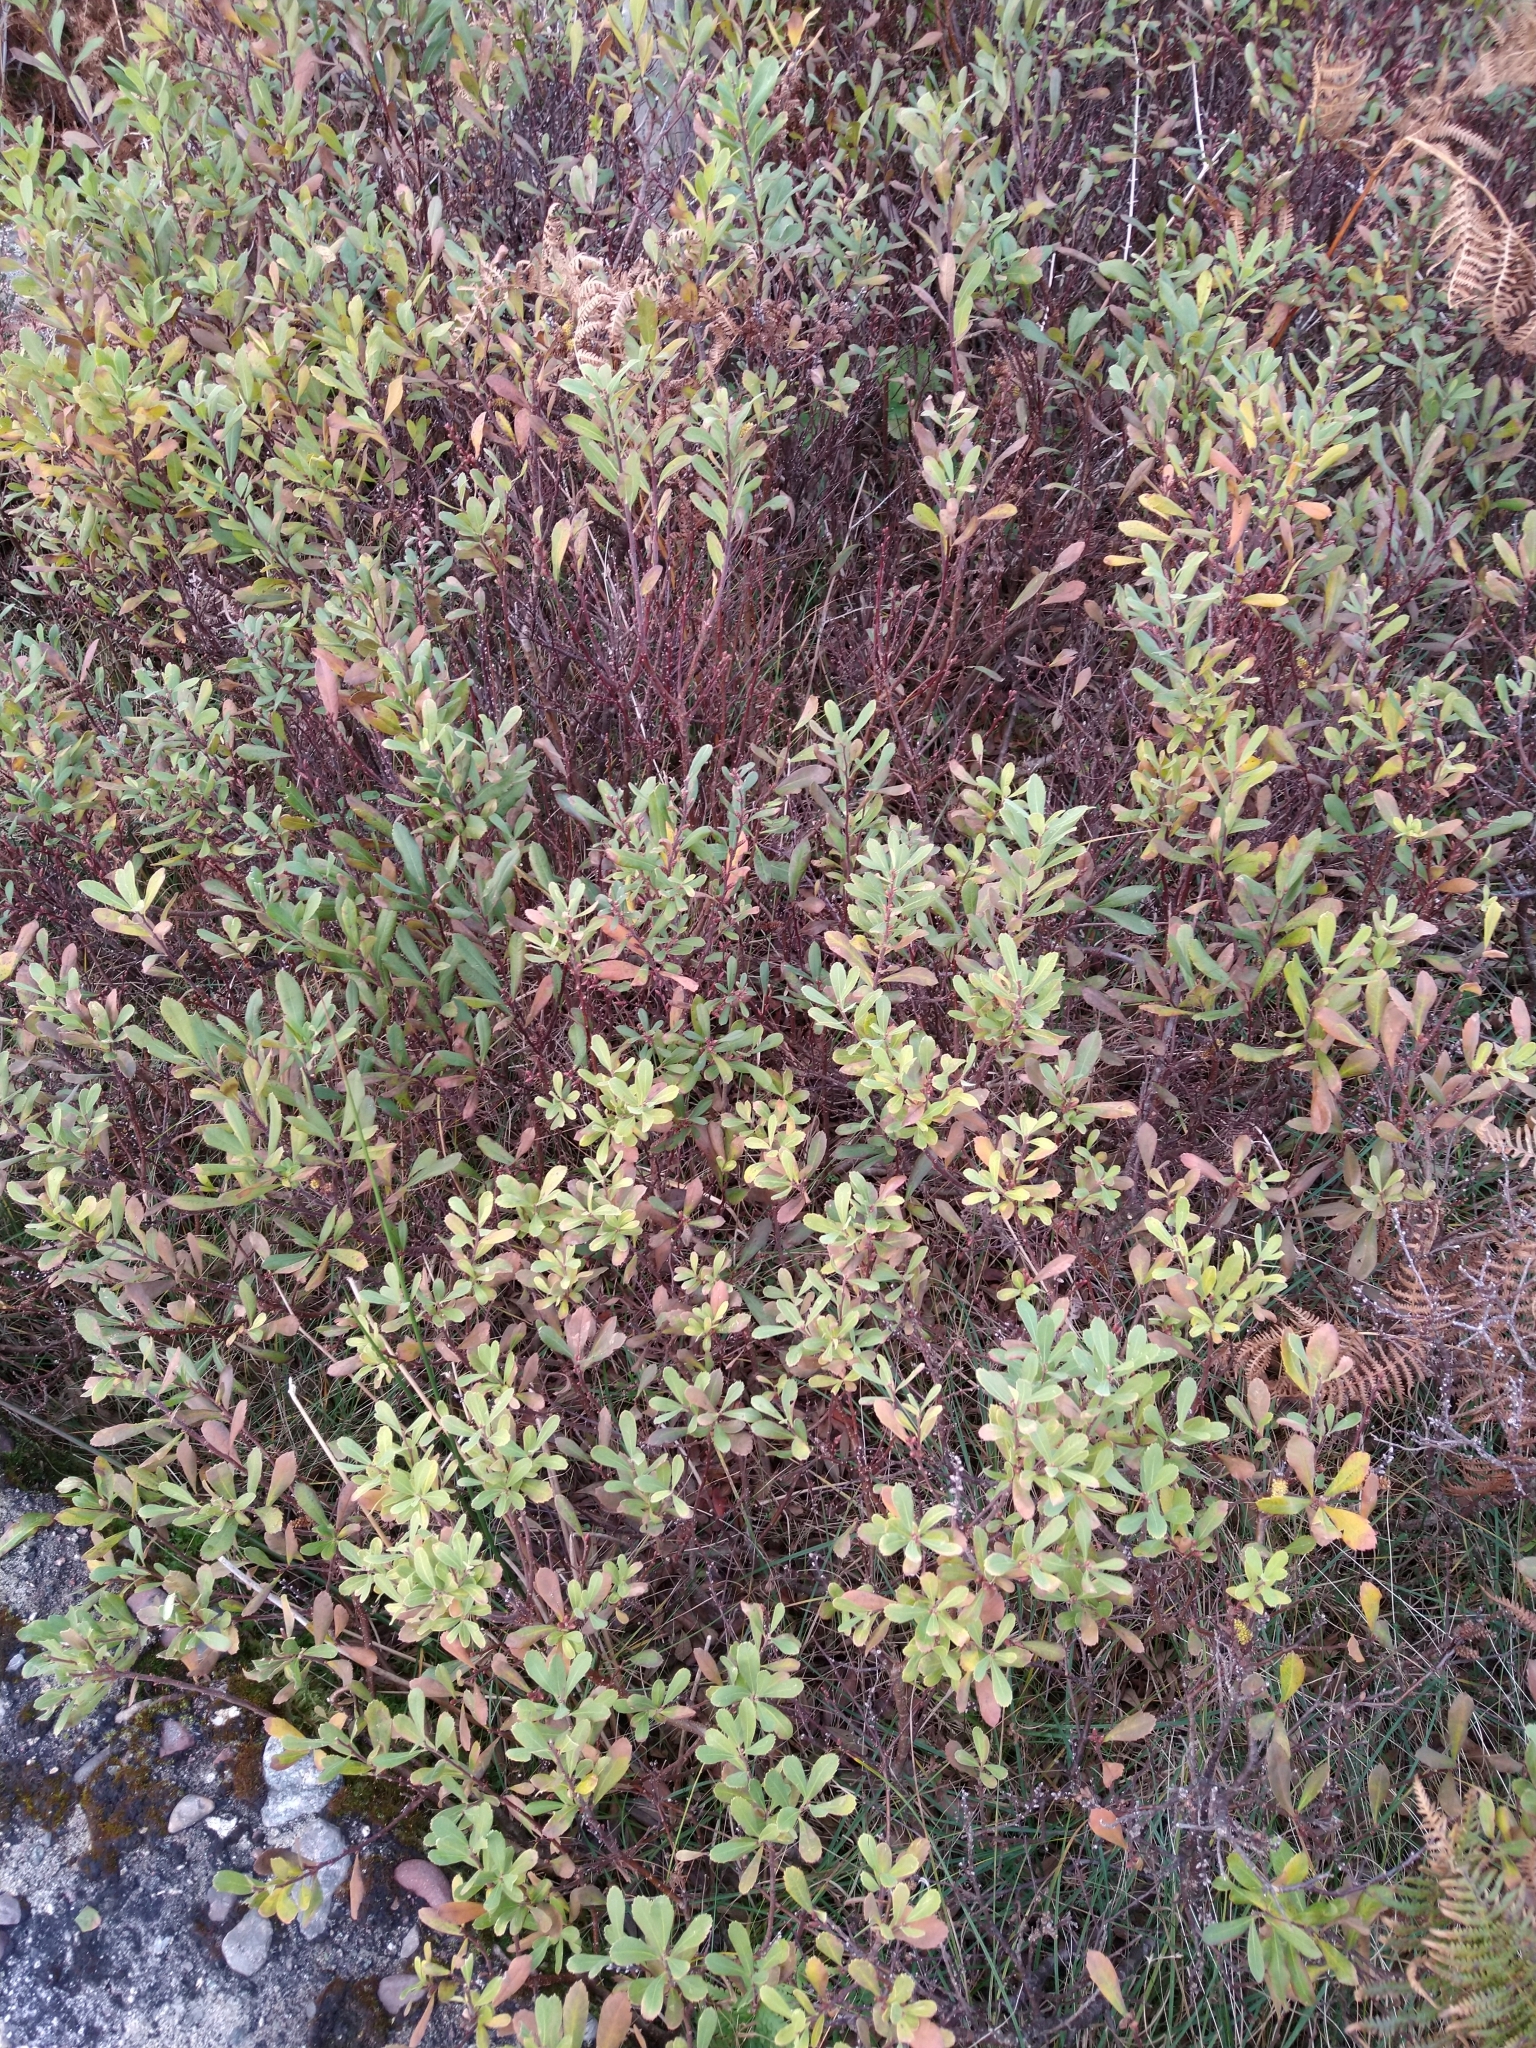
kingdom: Plantae
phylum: Tracheophyta
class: Magnoliopsida
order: Fagales
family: Myricaceae
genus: Myrica
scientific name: Myrica gale
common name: Sweet gale
